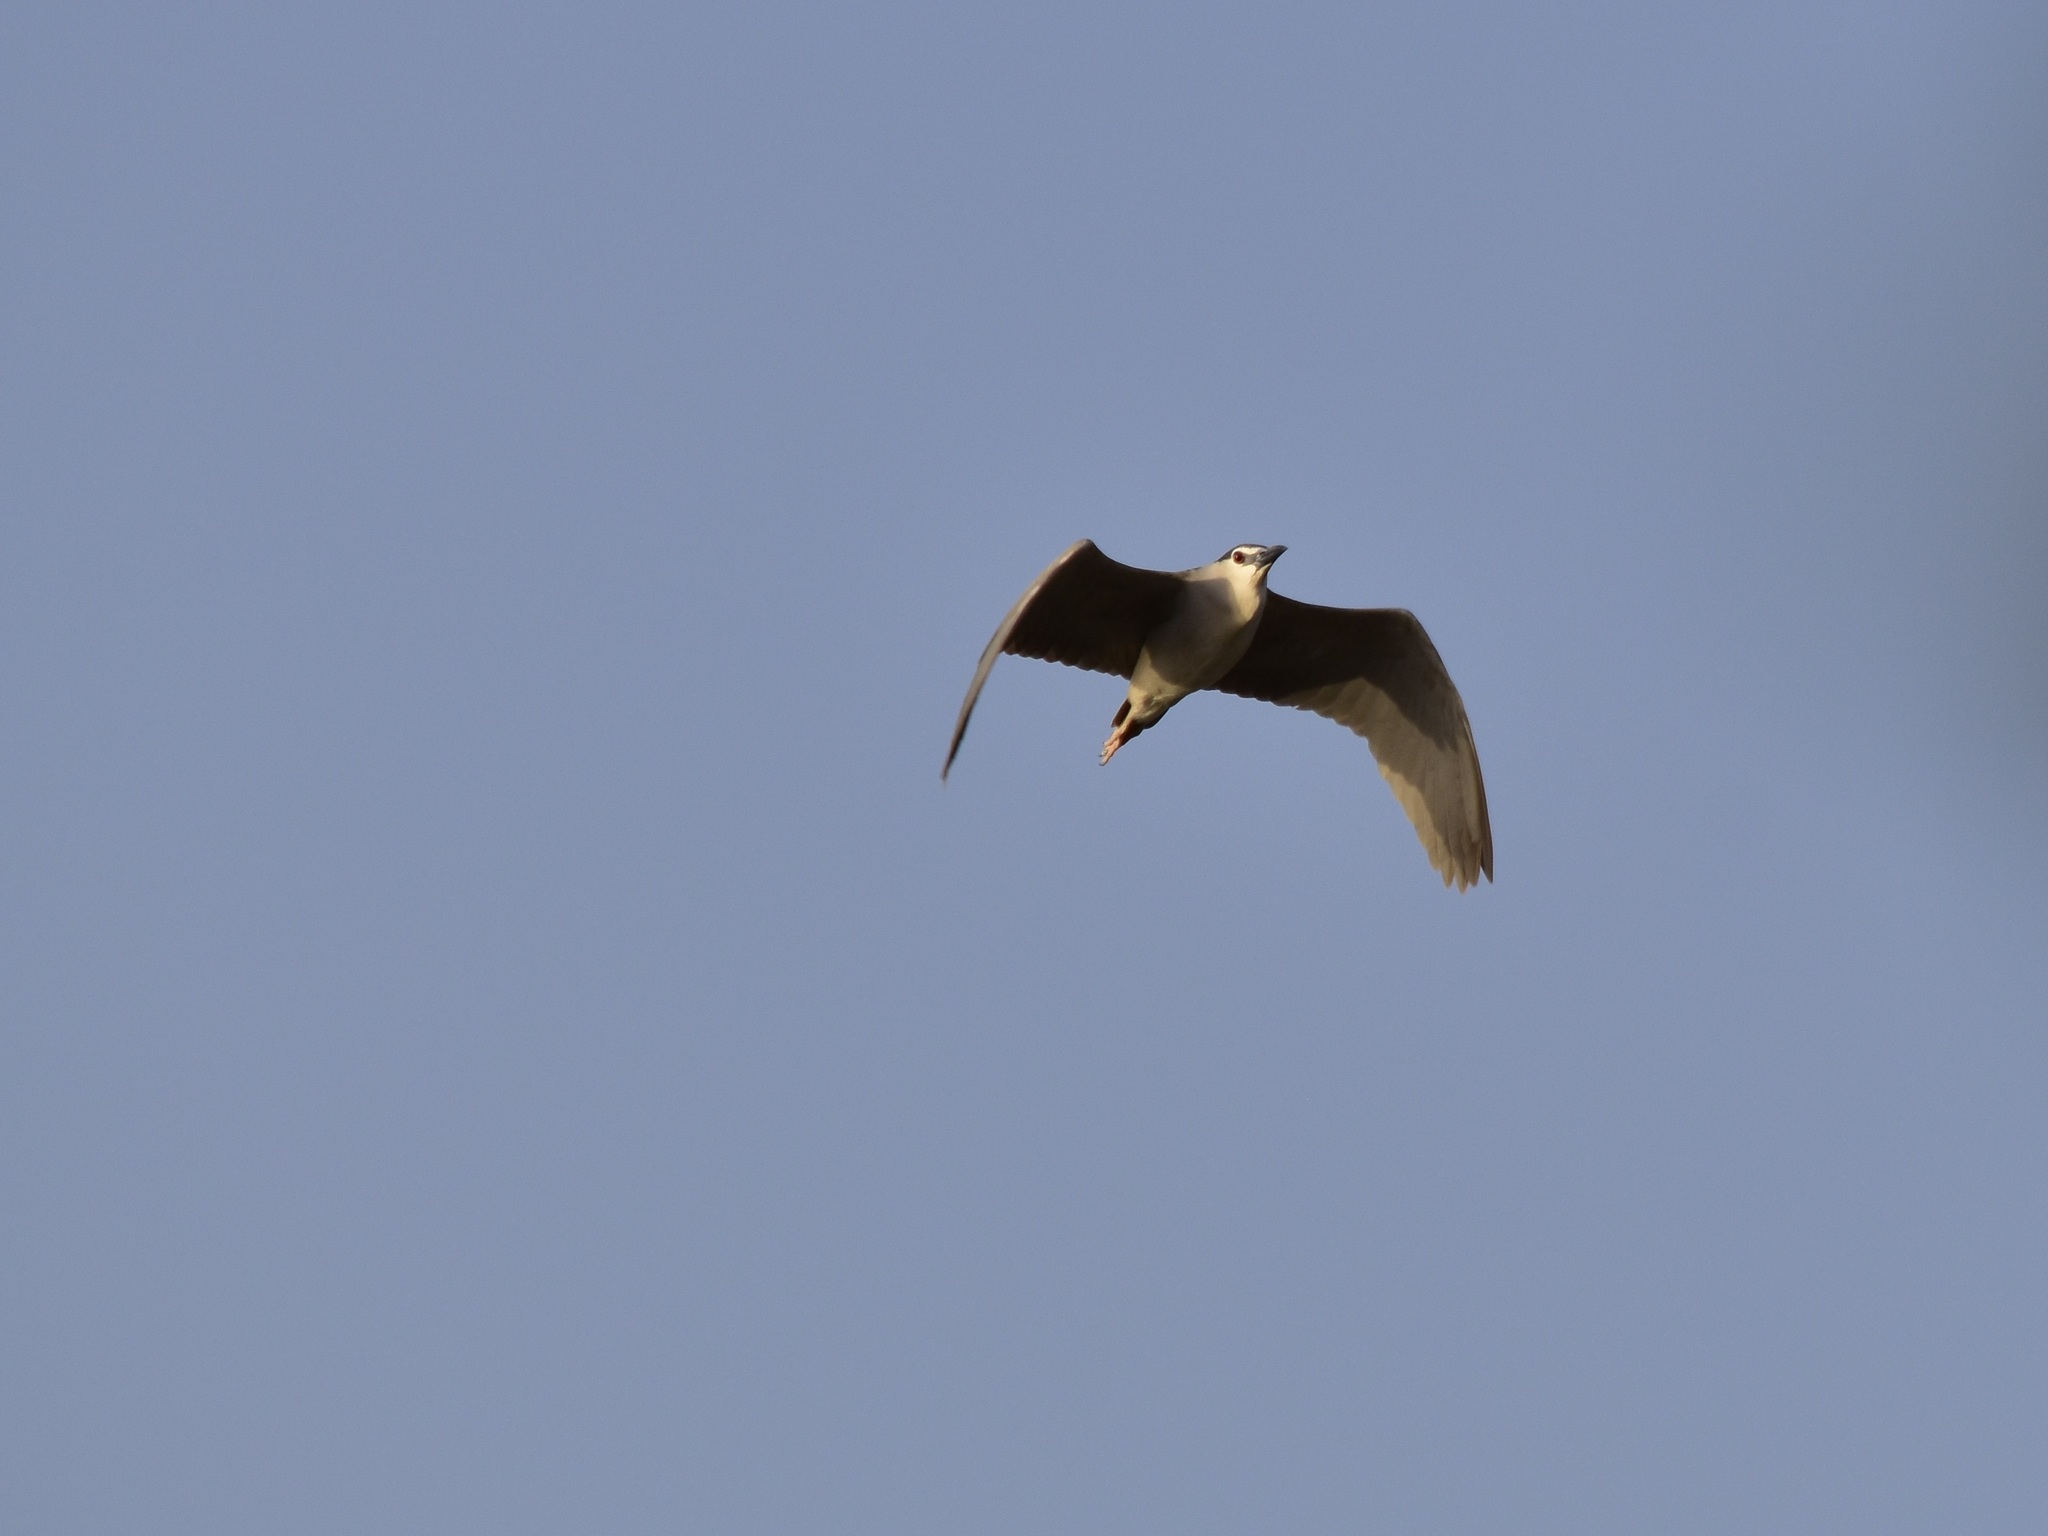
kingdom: Animalia
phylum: Chordata
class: Aves
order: Pelecaniformes
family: Ardeidae
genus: Nycticorax
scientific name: Nycticorax nycticorax
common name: Black-crowned night heron
